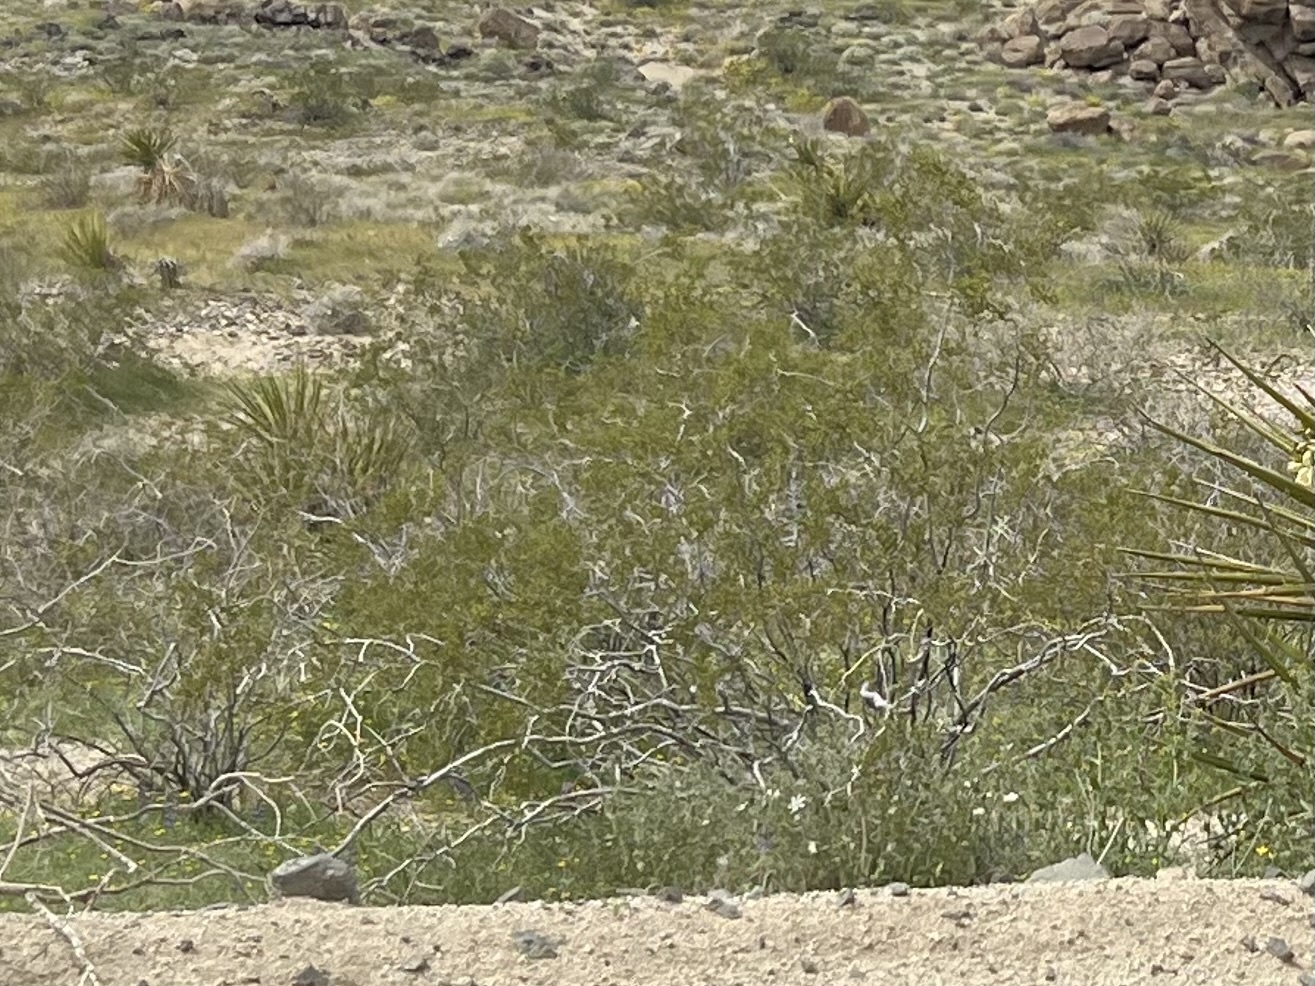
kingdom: Plantae
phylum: Tracheophyta
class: Magnoliopsida
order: Zygophyllales
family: Zygophyllaceae
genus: Larrea
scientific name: Larrea tridentata
